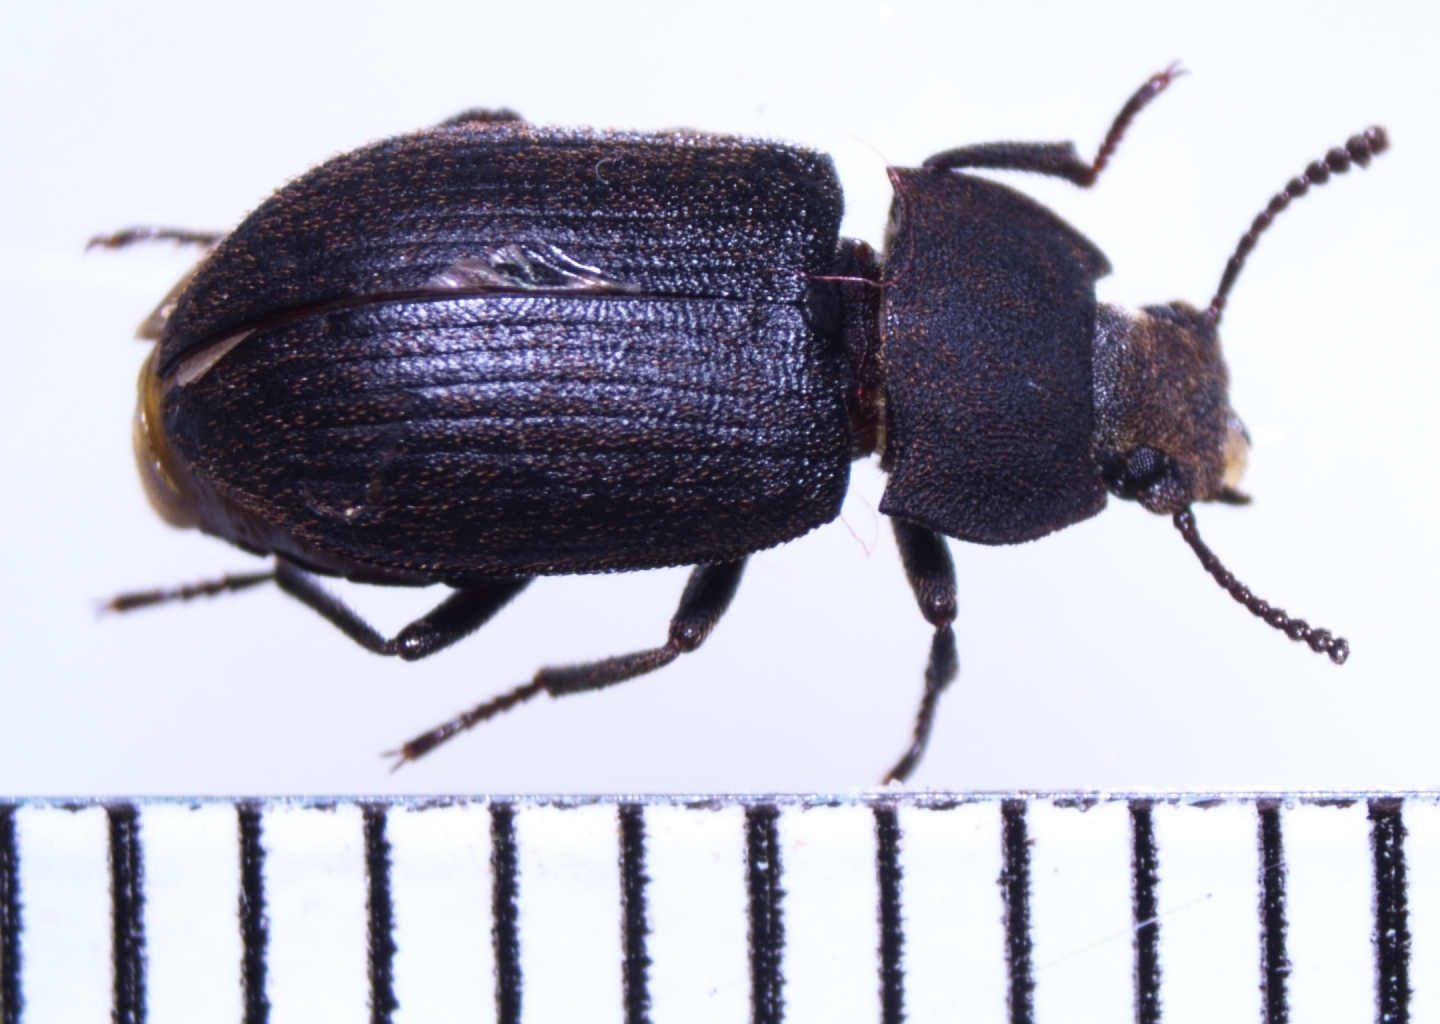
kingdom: Animalia
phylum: Arthropoda
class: Insecta
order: Coleoptera
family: Tenebrionidae
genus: Gonocephalum
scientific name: Gonocephalum adpressiforme
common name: Gonocephalum darkling beetle
